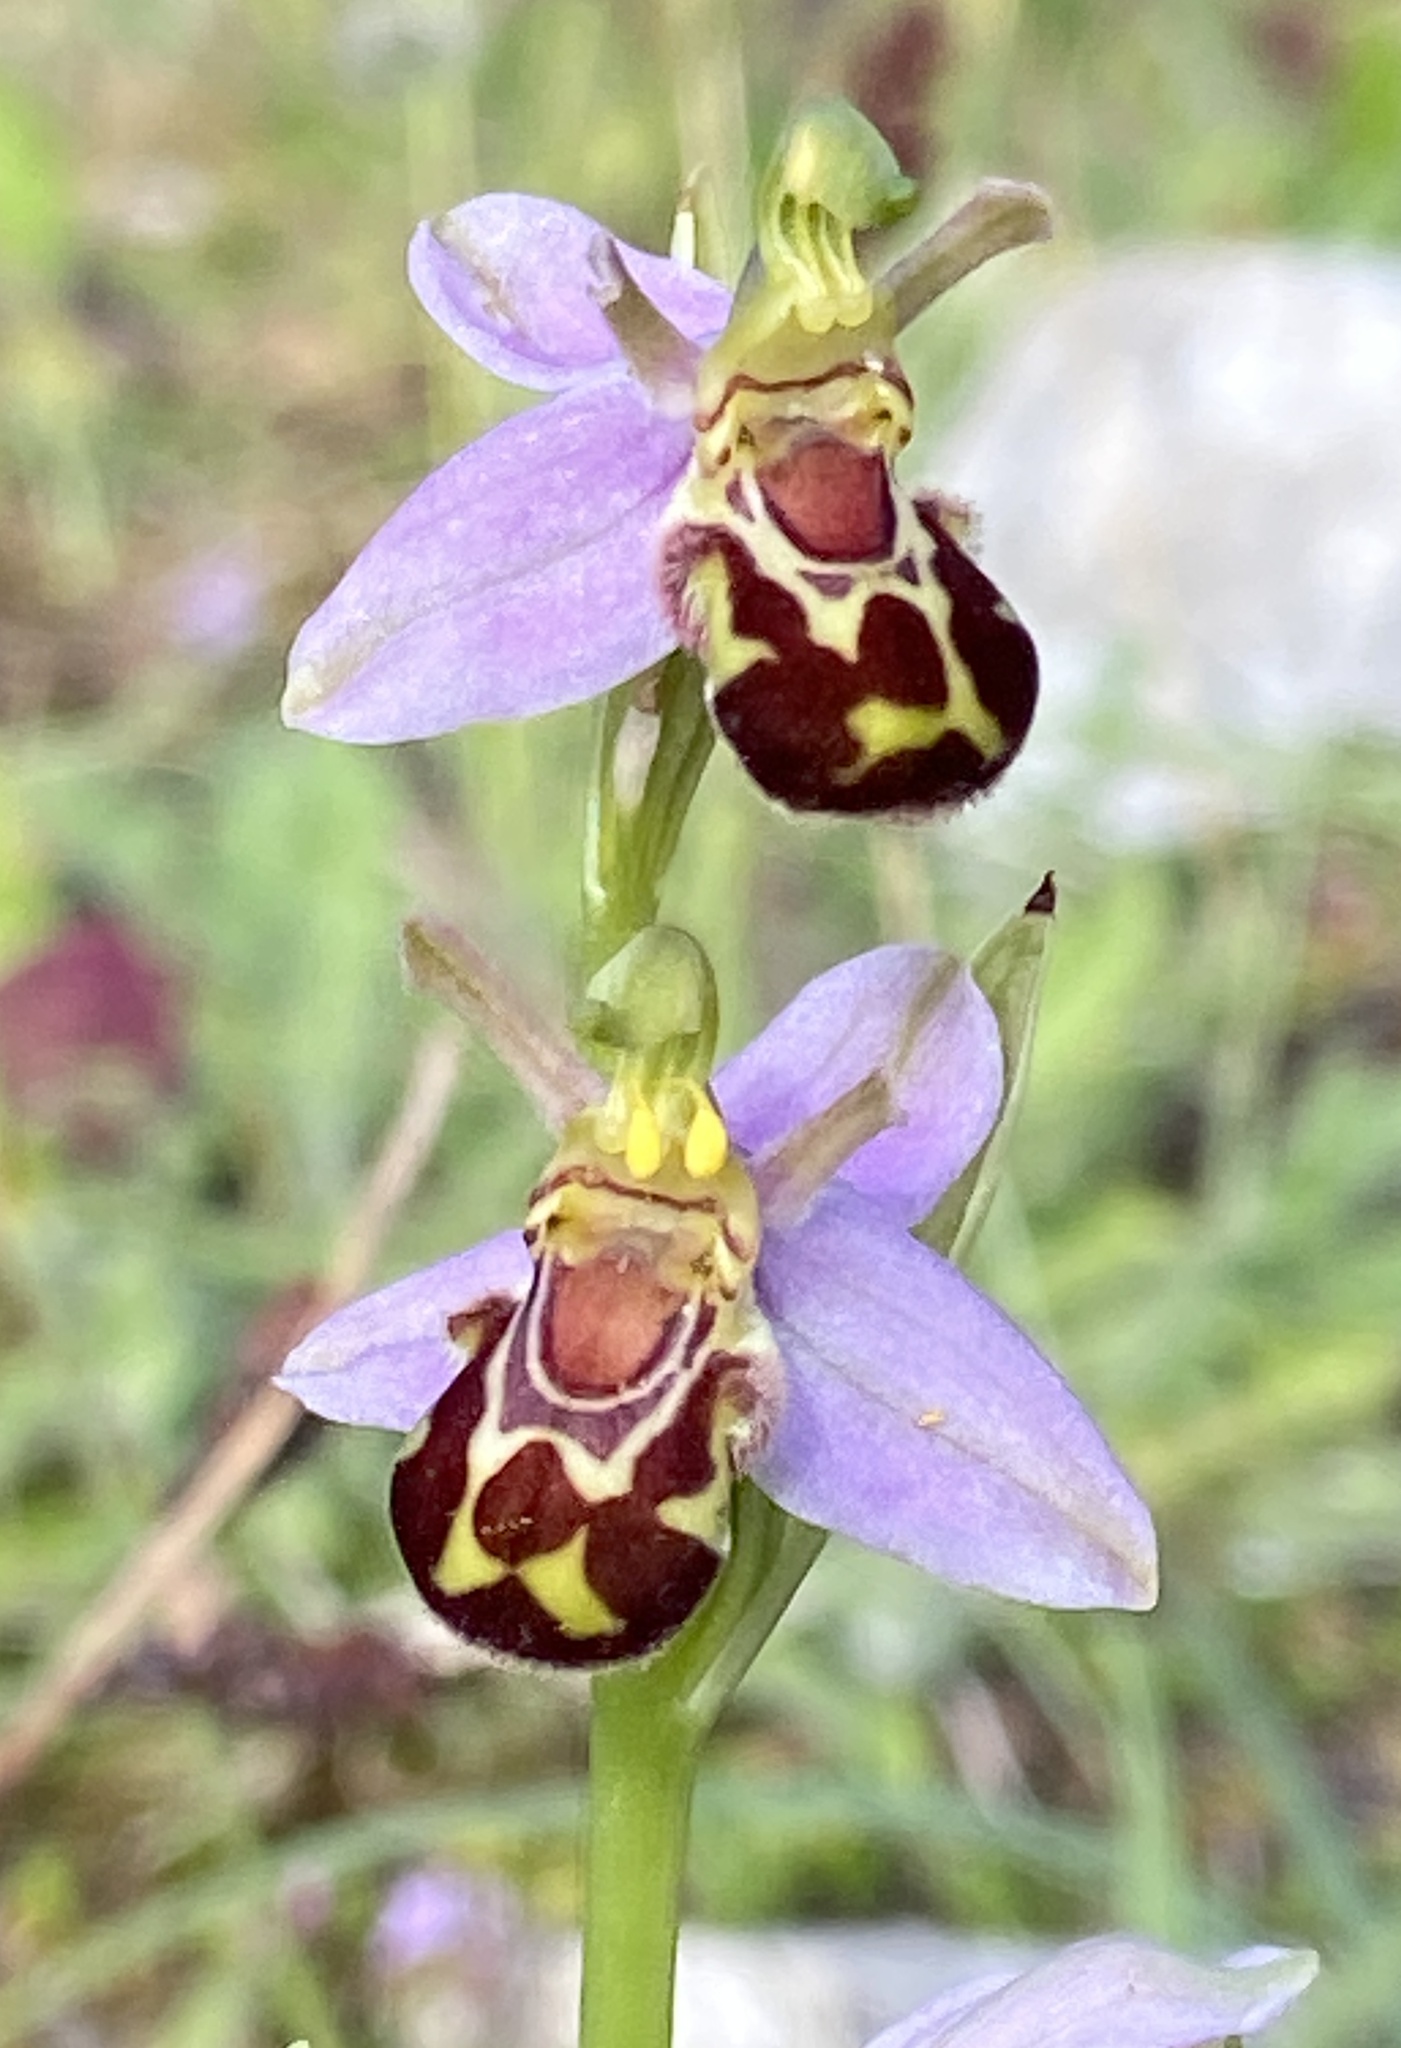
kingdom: Plantae
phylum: Tracheophyta
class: Liliopsida
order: Asparagales
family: Orchidaceae
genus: Ophrys
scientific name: Ophrys apifera
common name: Bee orchid
